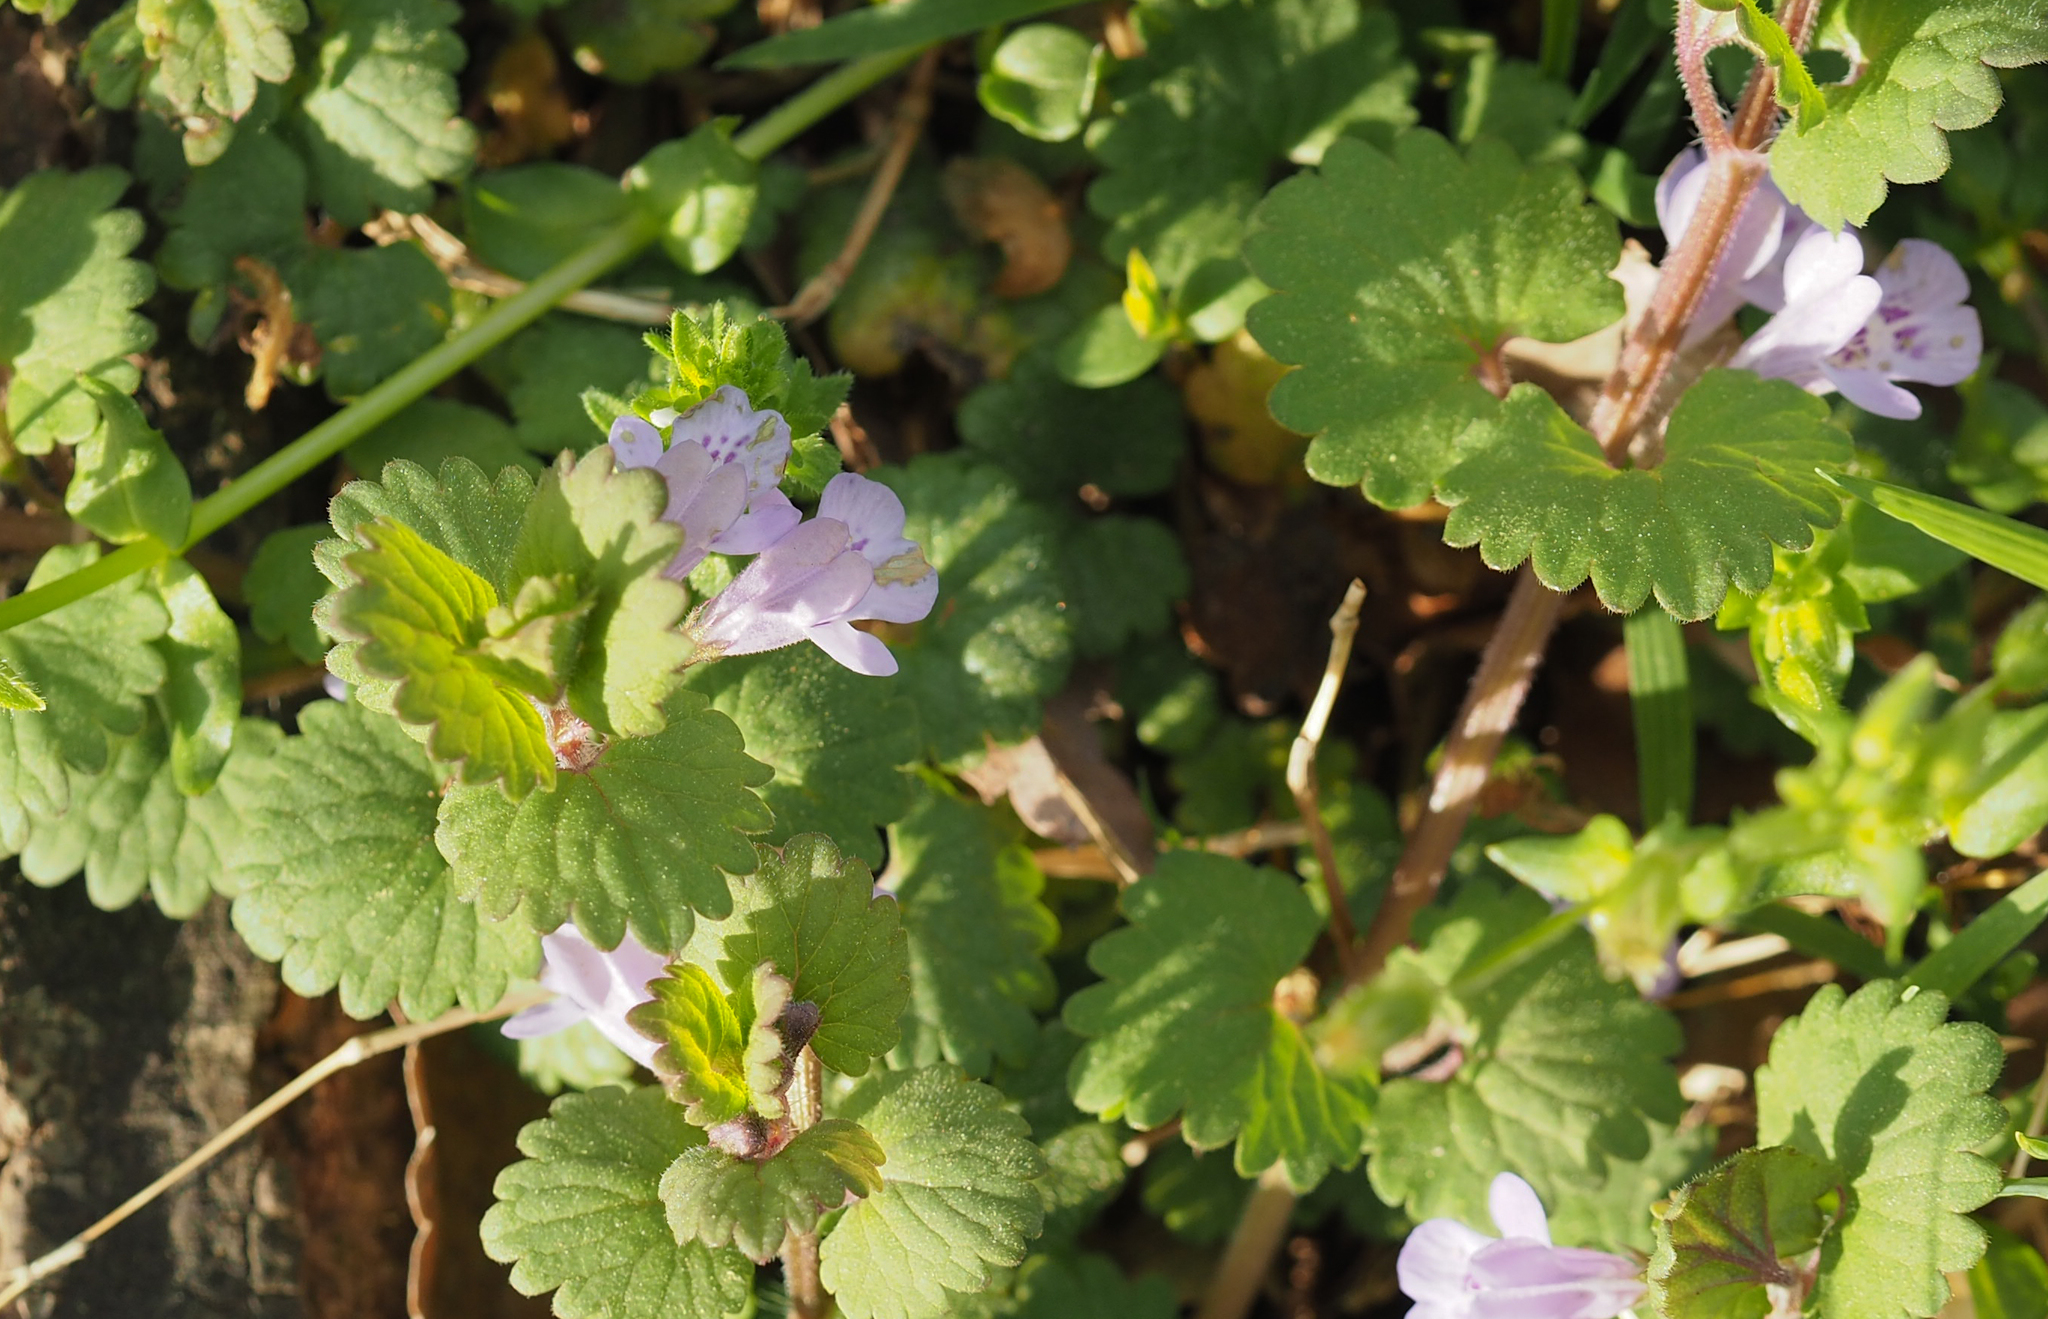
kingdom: Plantae
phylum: Tracheophyta
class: Magnoliopsida
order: Lamiales
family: Lamiaceae
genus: Glechoma
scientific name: Glechoma hederacea
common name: Ground ivy
